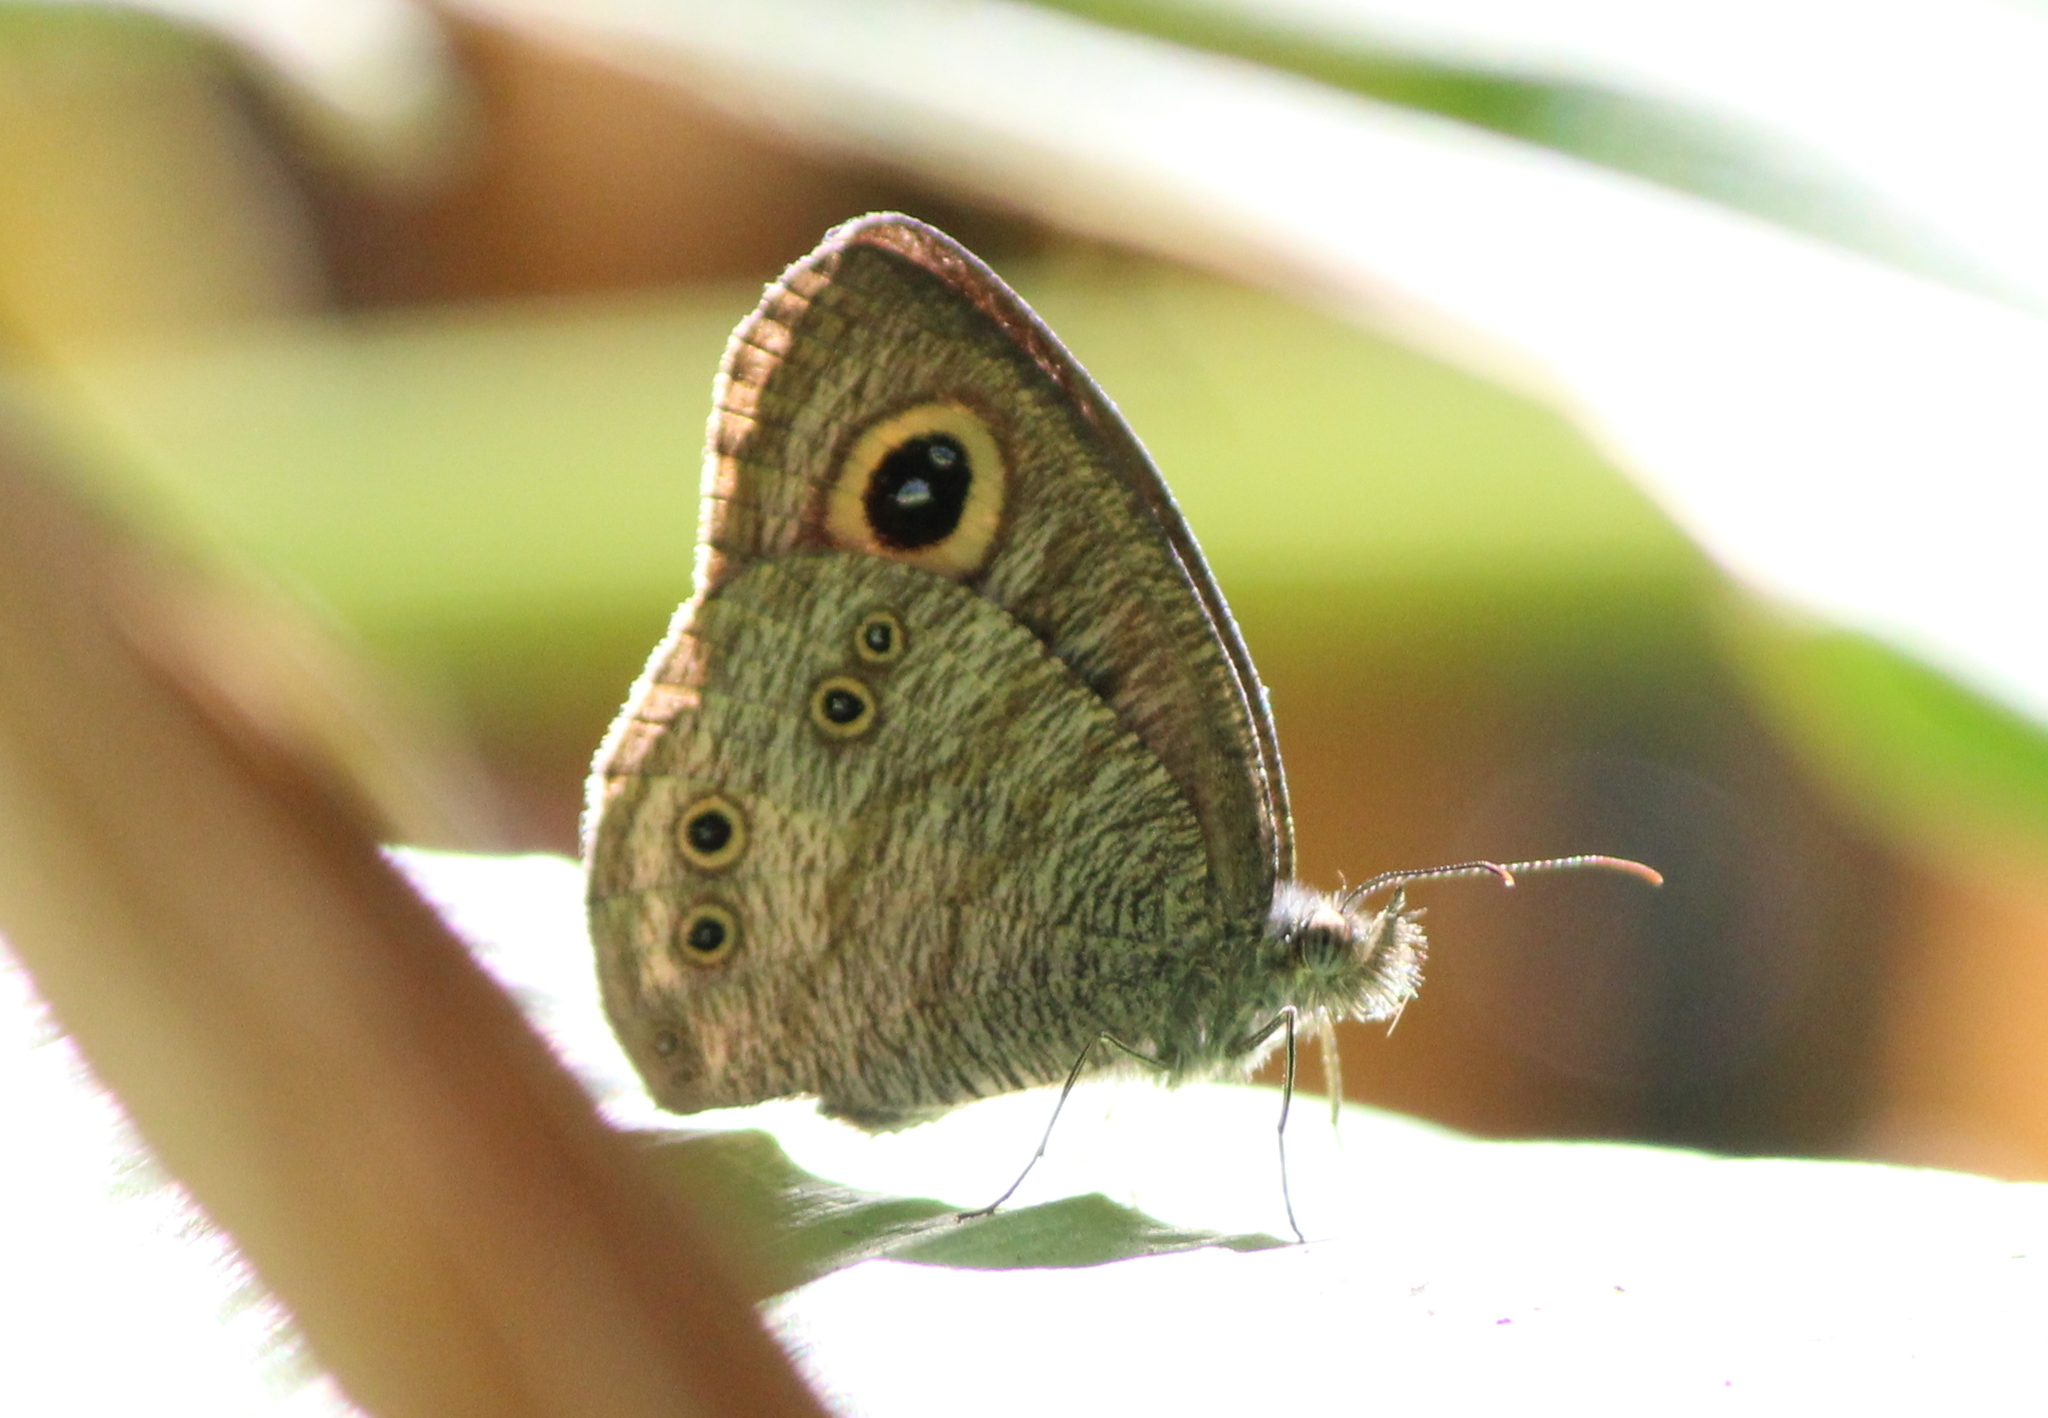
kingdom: Animalia
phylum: Arthropoda
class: Insecta
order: Lepidoptera
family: Nymphalidae
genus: Ypthima
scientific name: Ypthima baldus
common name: Common five-ring
